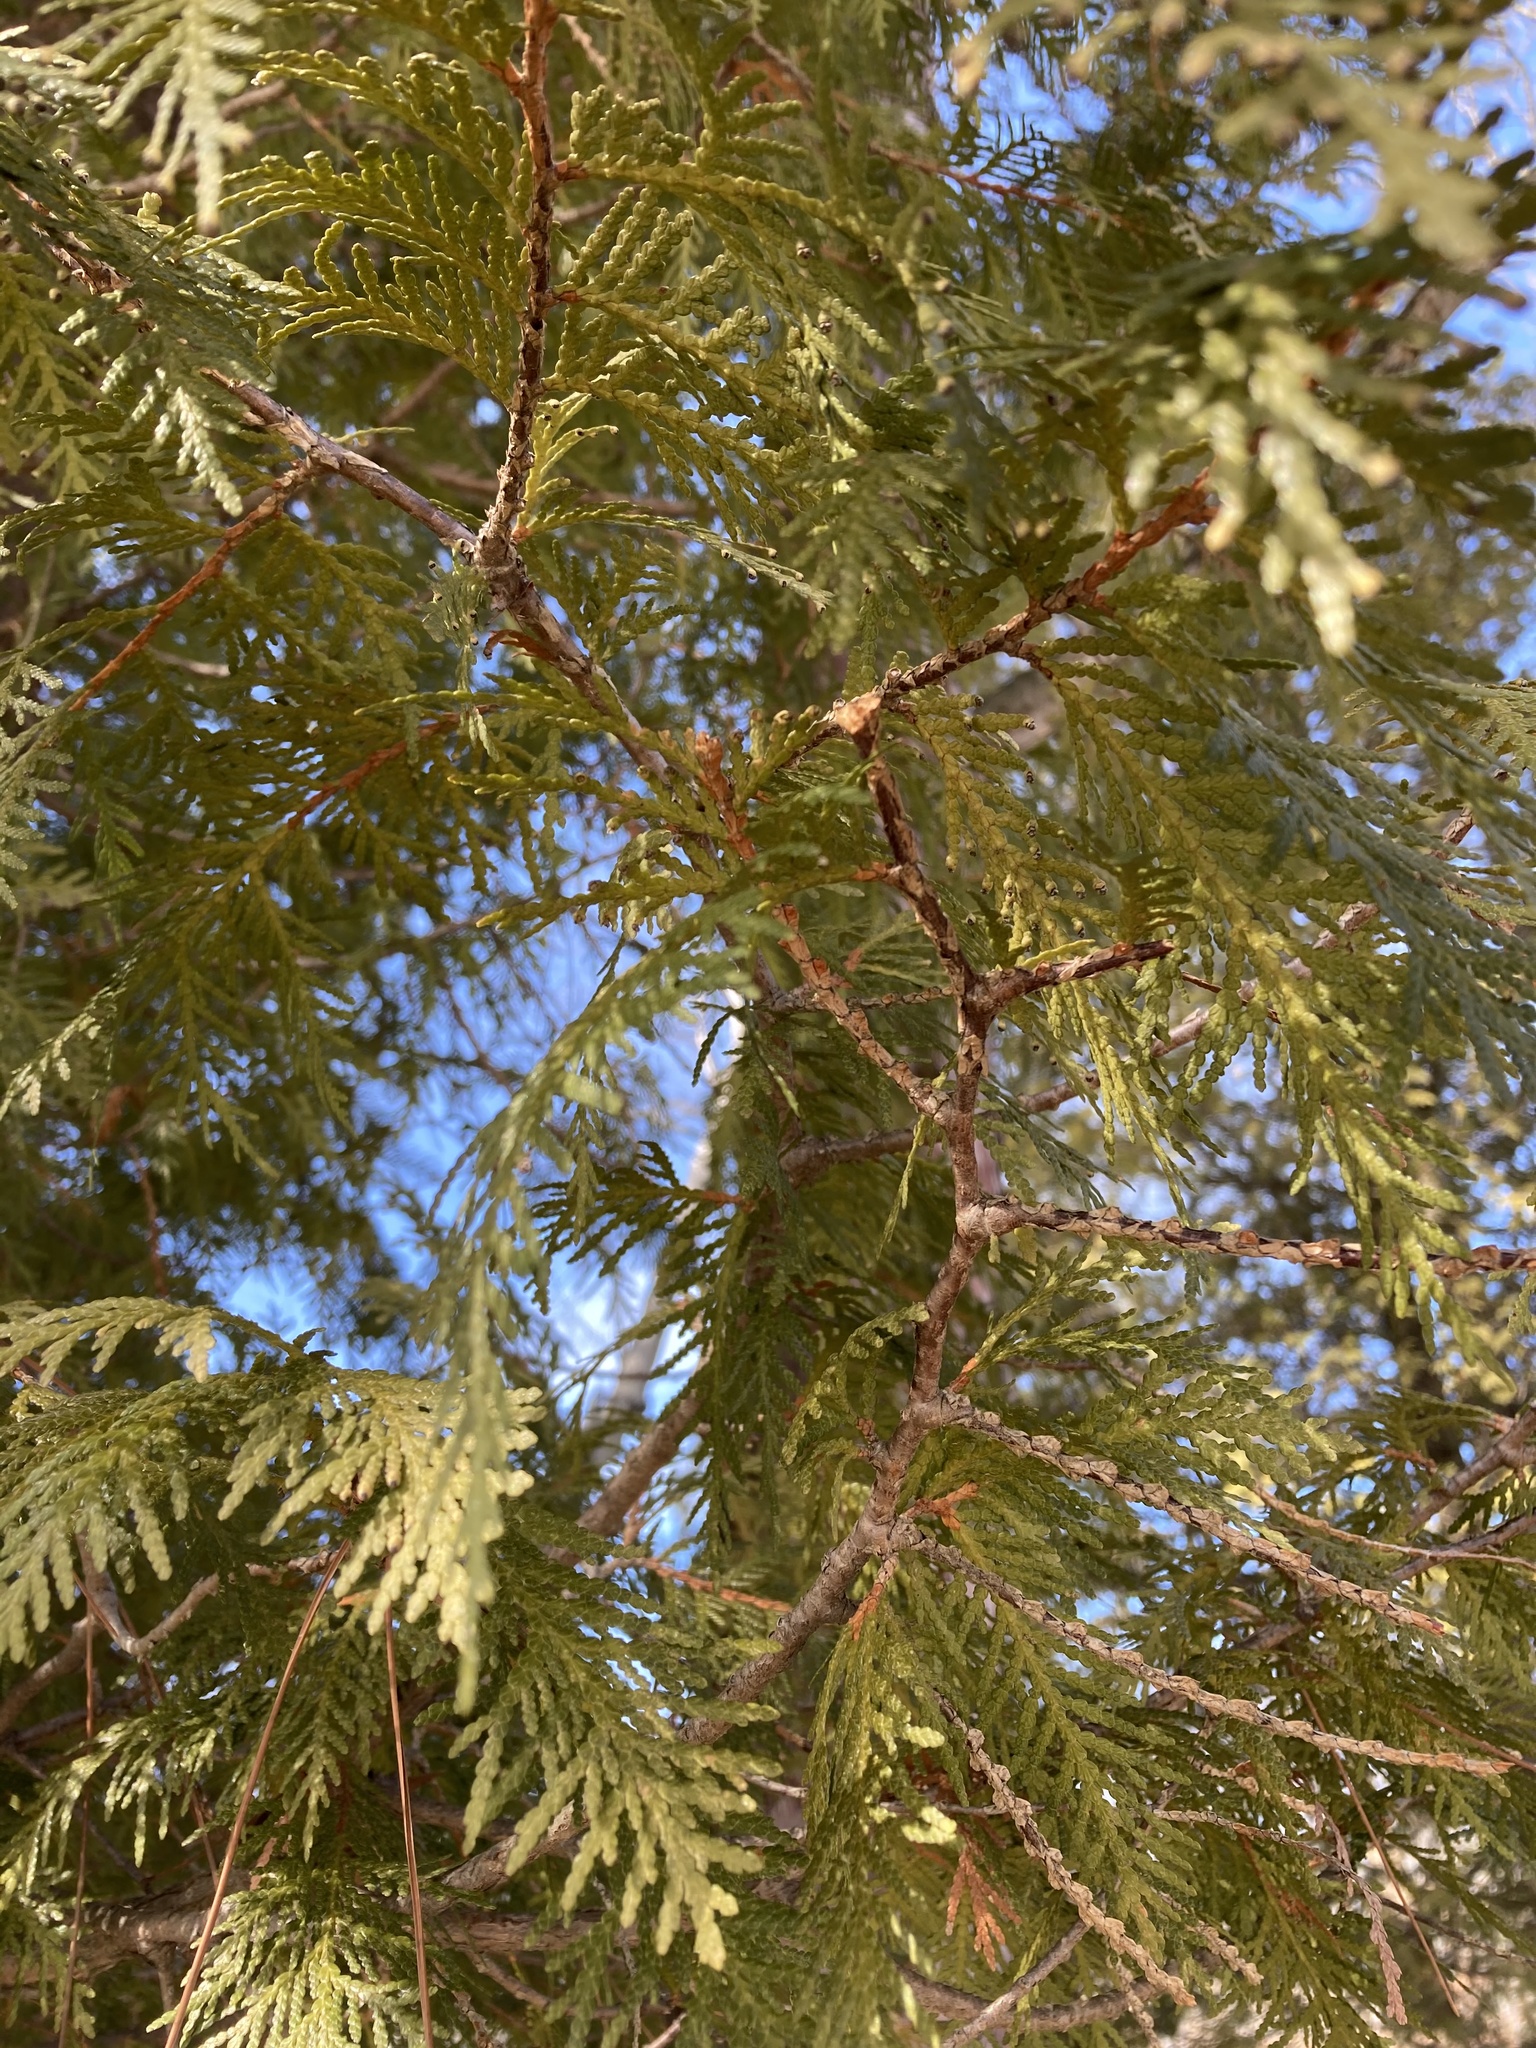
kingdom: Plantae
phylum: Tracheophyta
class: Pinopsida
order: Pinales
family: Cupressaceae
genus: Thuja
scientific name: Thuja occidentalis
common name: Northern white-cedar
